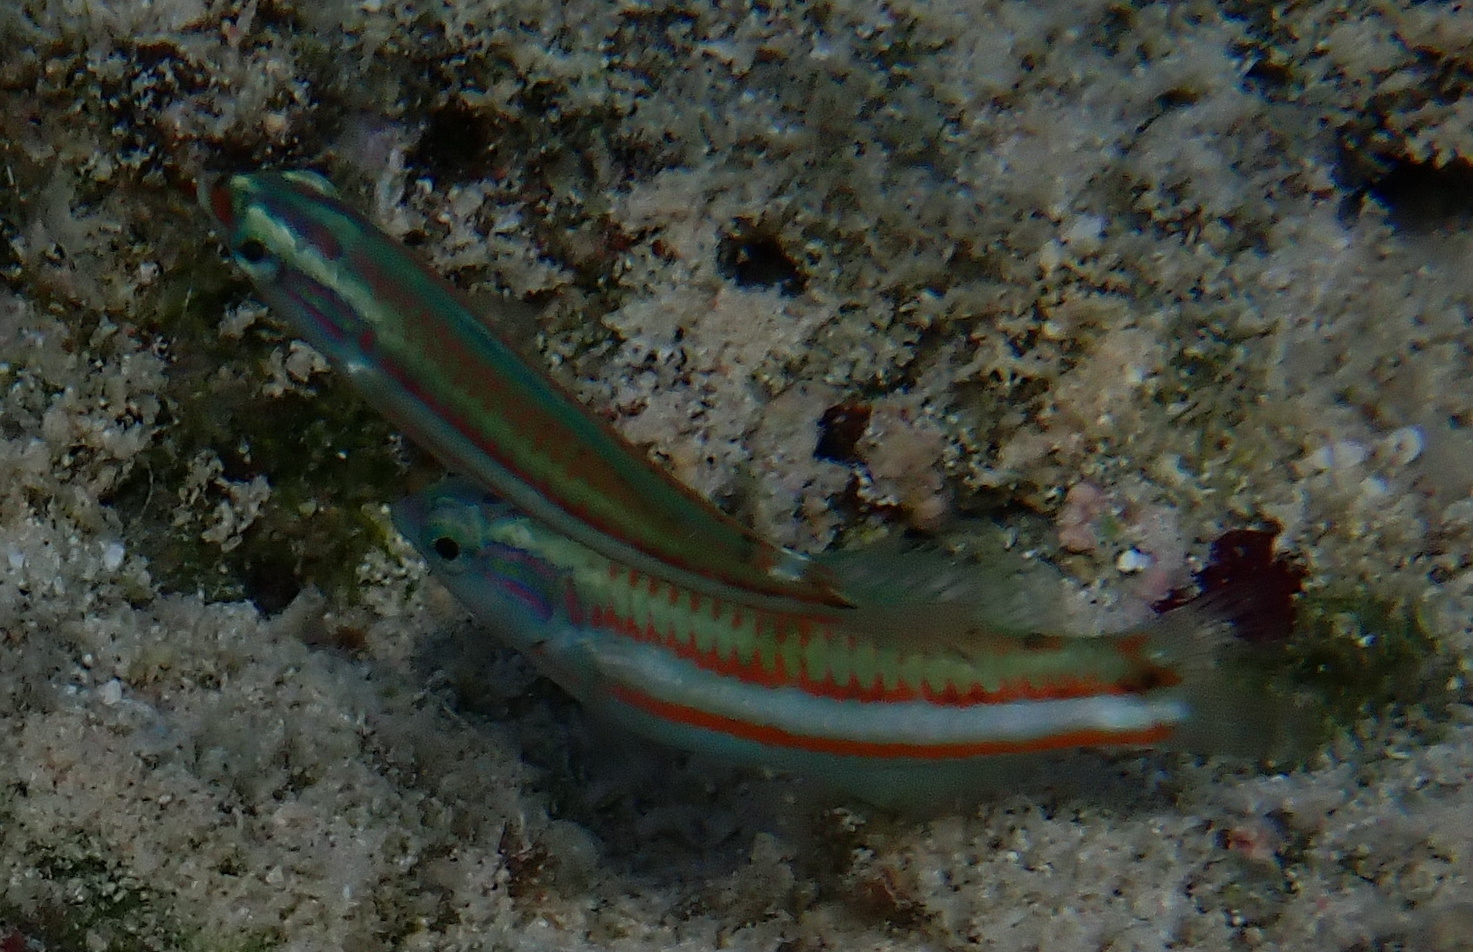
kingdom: Animalia
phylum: Chordata
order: Perciformes
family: Labridae
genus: Thalassoma
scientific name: Thalassoma rueppellii
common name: Klunzinger's wrasse
